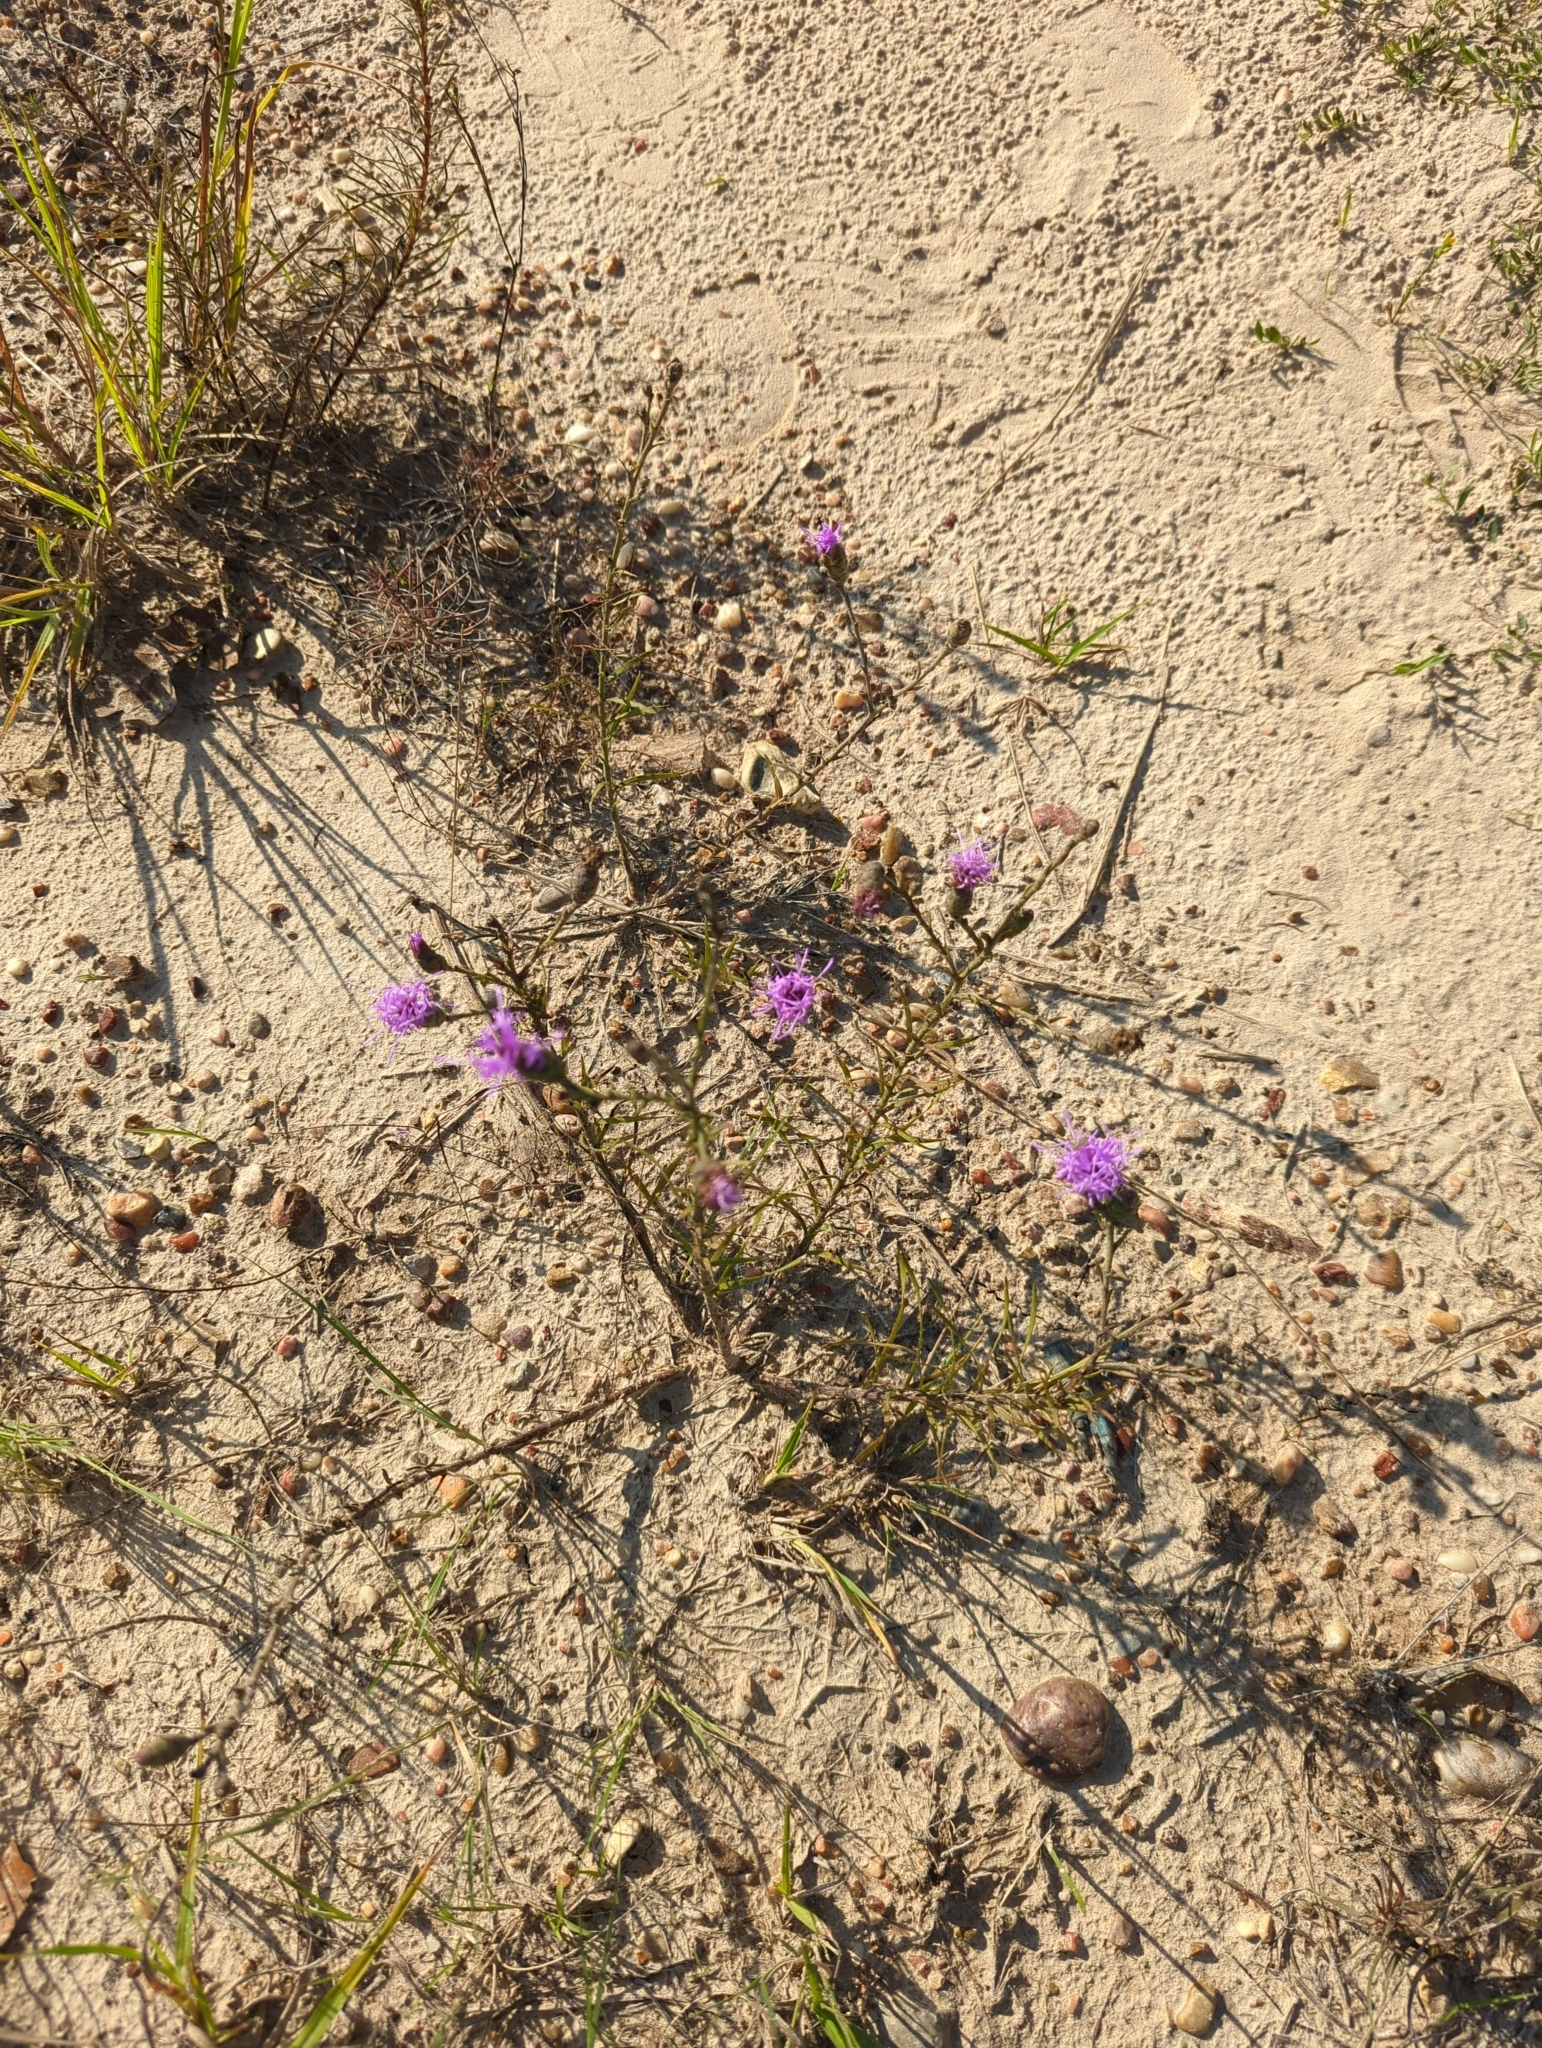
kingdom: Plantae
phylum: Tracheophyta
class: Magnoliopsida
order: Asterales
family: Asteraceae
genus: Liatris
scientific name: Liatris cymosa
